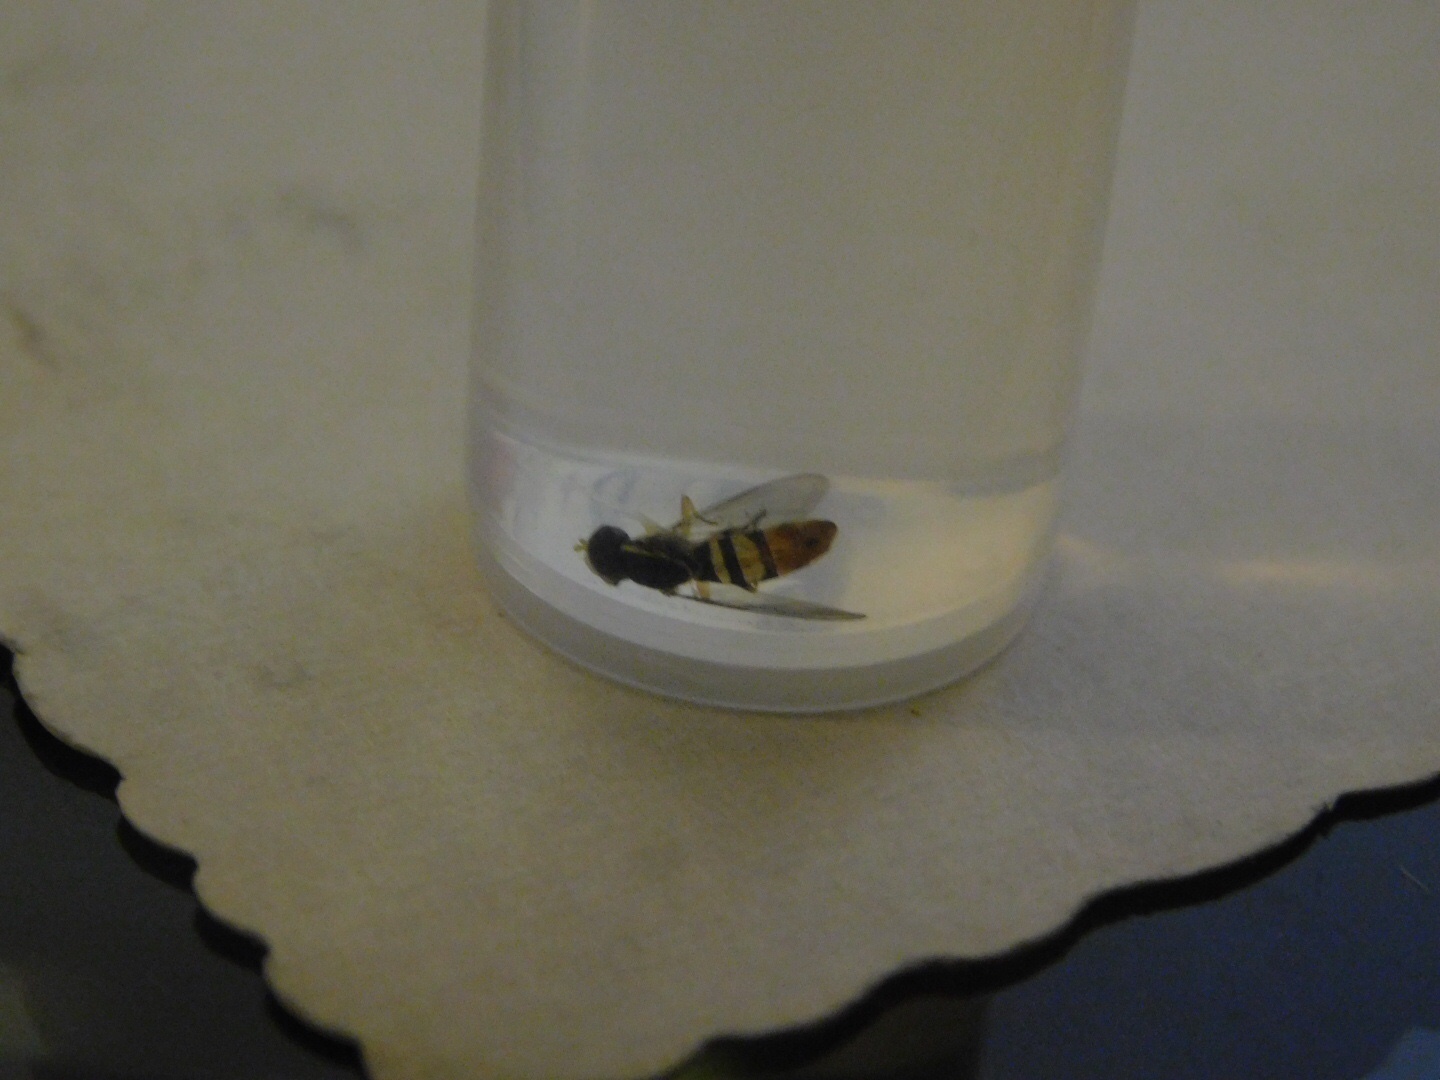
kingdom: Animalia
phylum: Arthropoda
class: Insecta
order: Diptera
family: Syrphidae
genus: Toxomerus
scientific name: Toxomerus floralis
